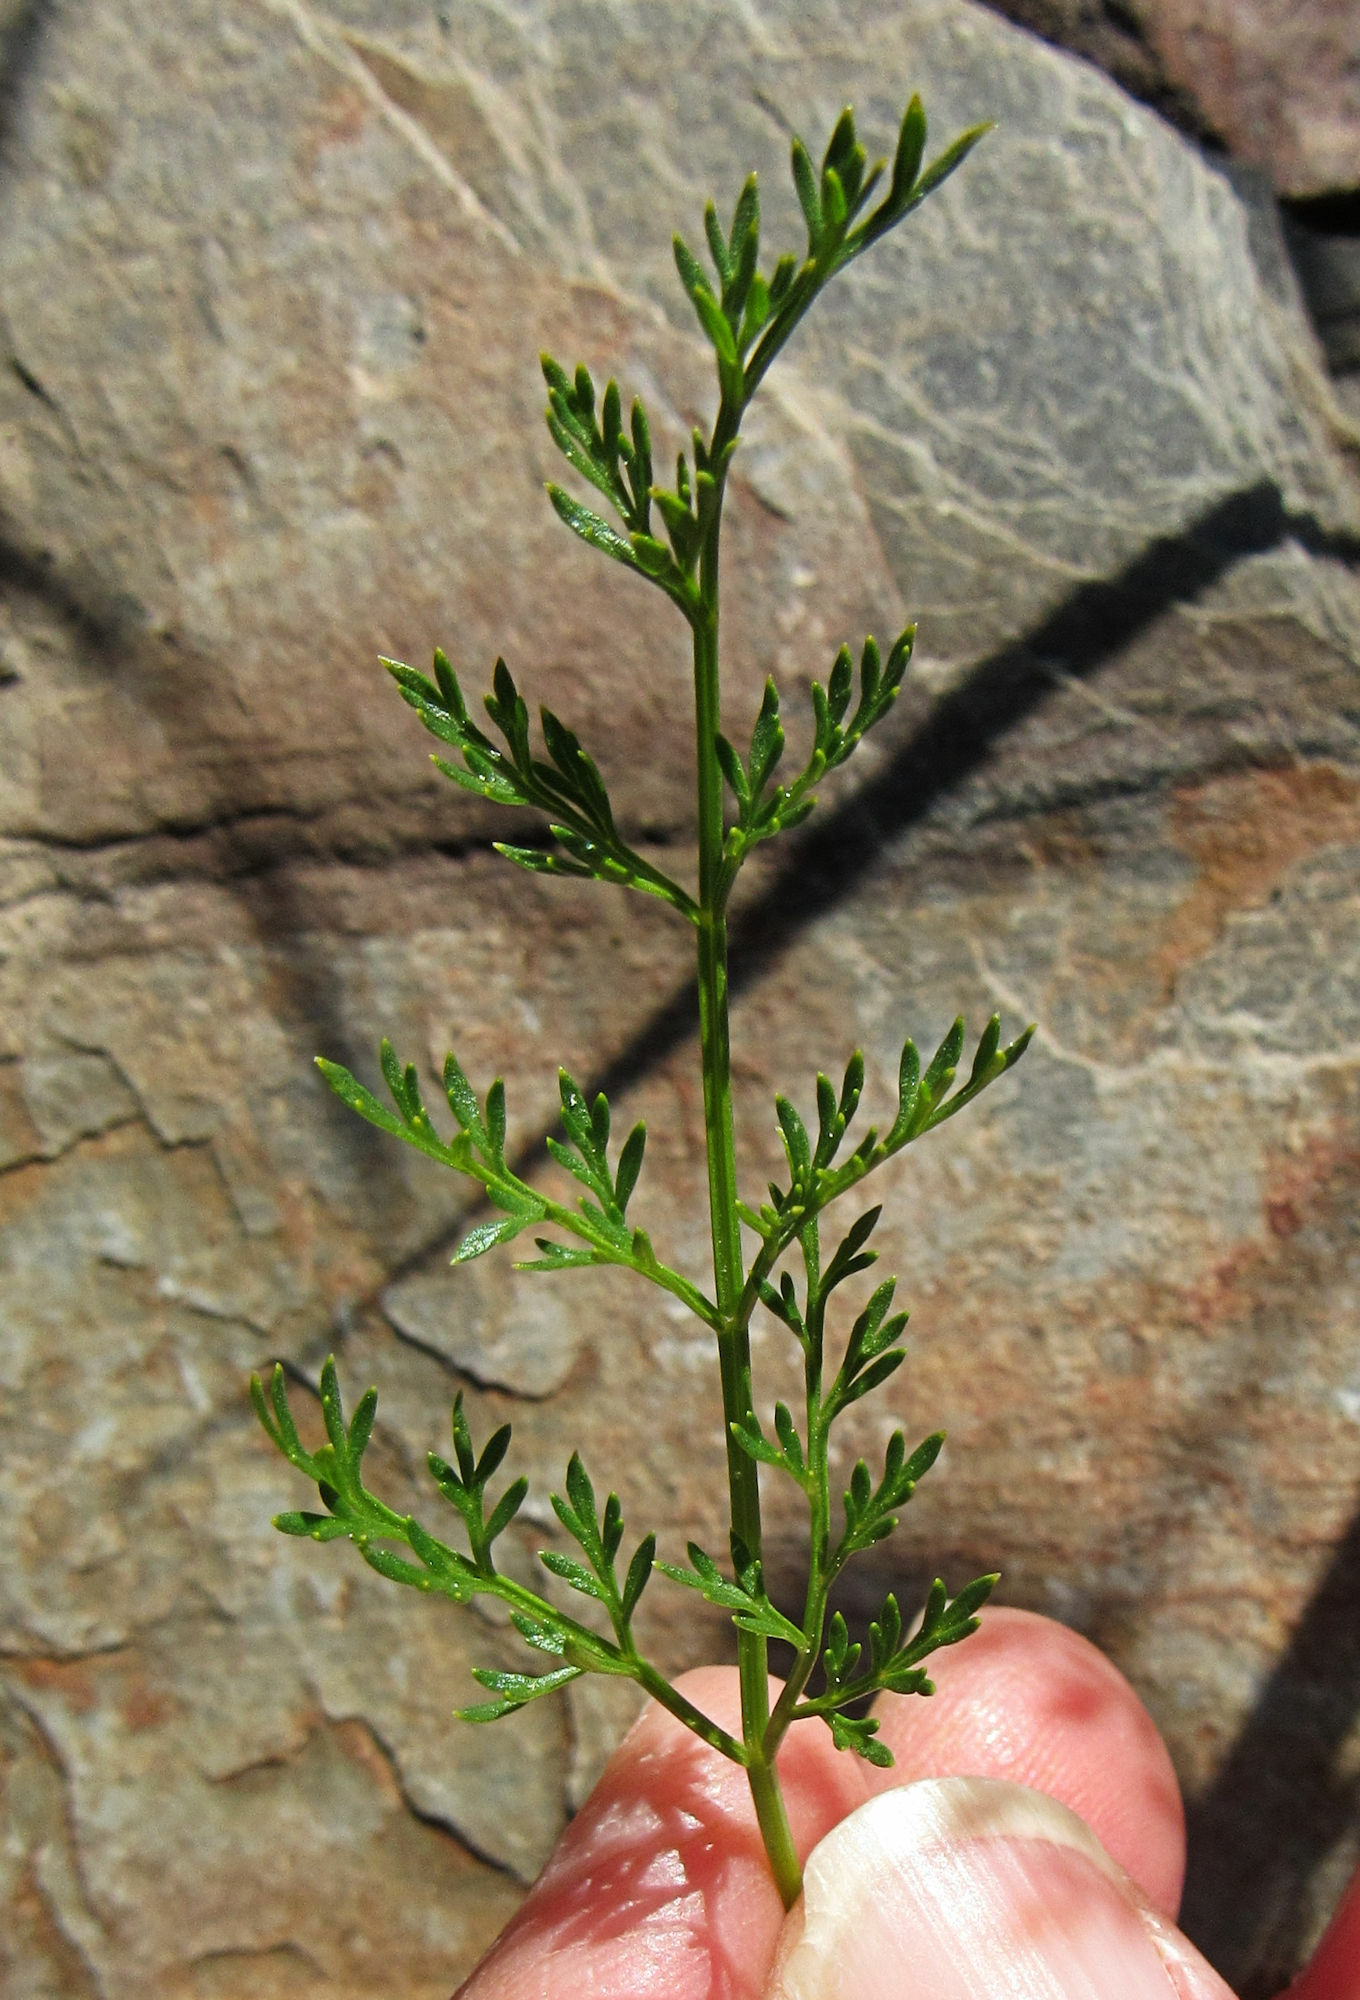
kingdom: Plantae
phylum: Tracheophyta
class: Magnoliopsida
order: Apiales
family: Apiaceae
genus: Pteryxia
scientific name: Pteryxia terebinthina
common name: Turpentine wavewing
